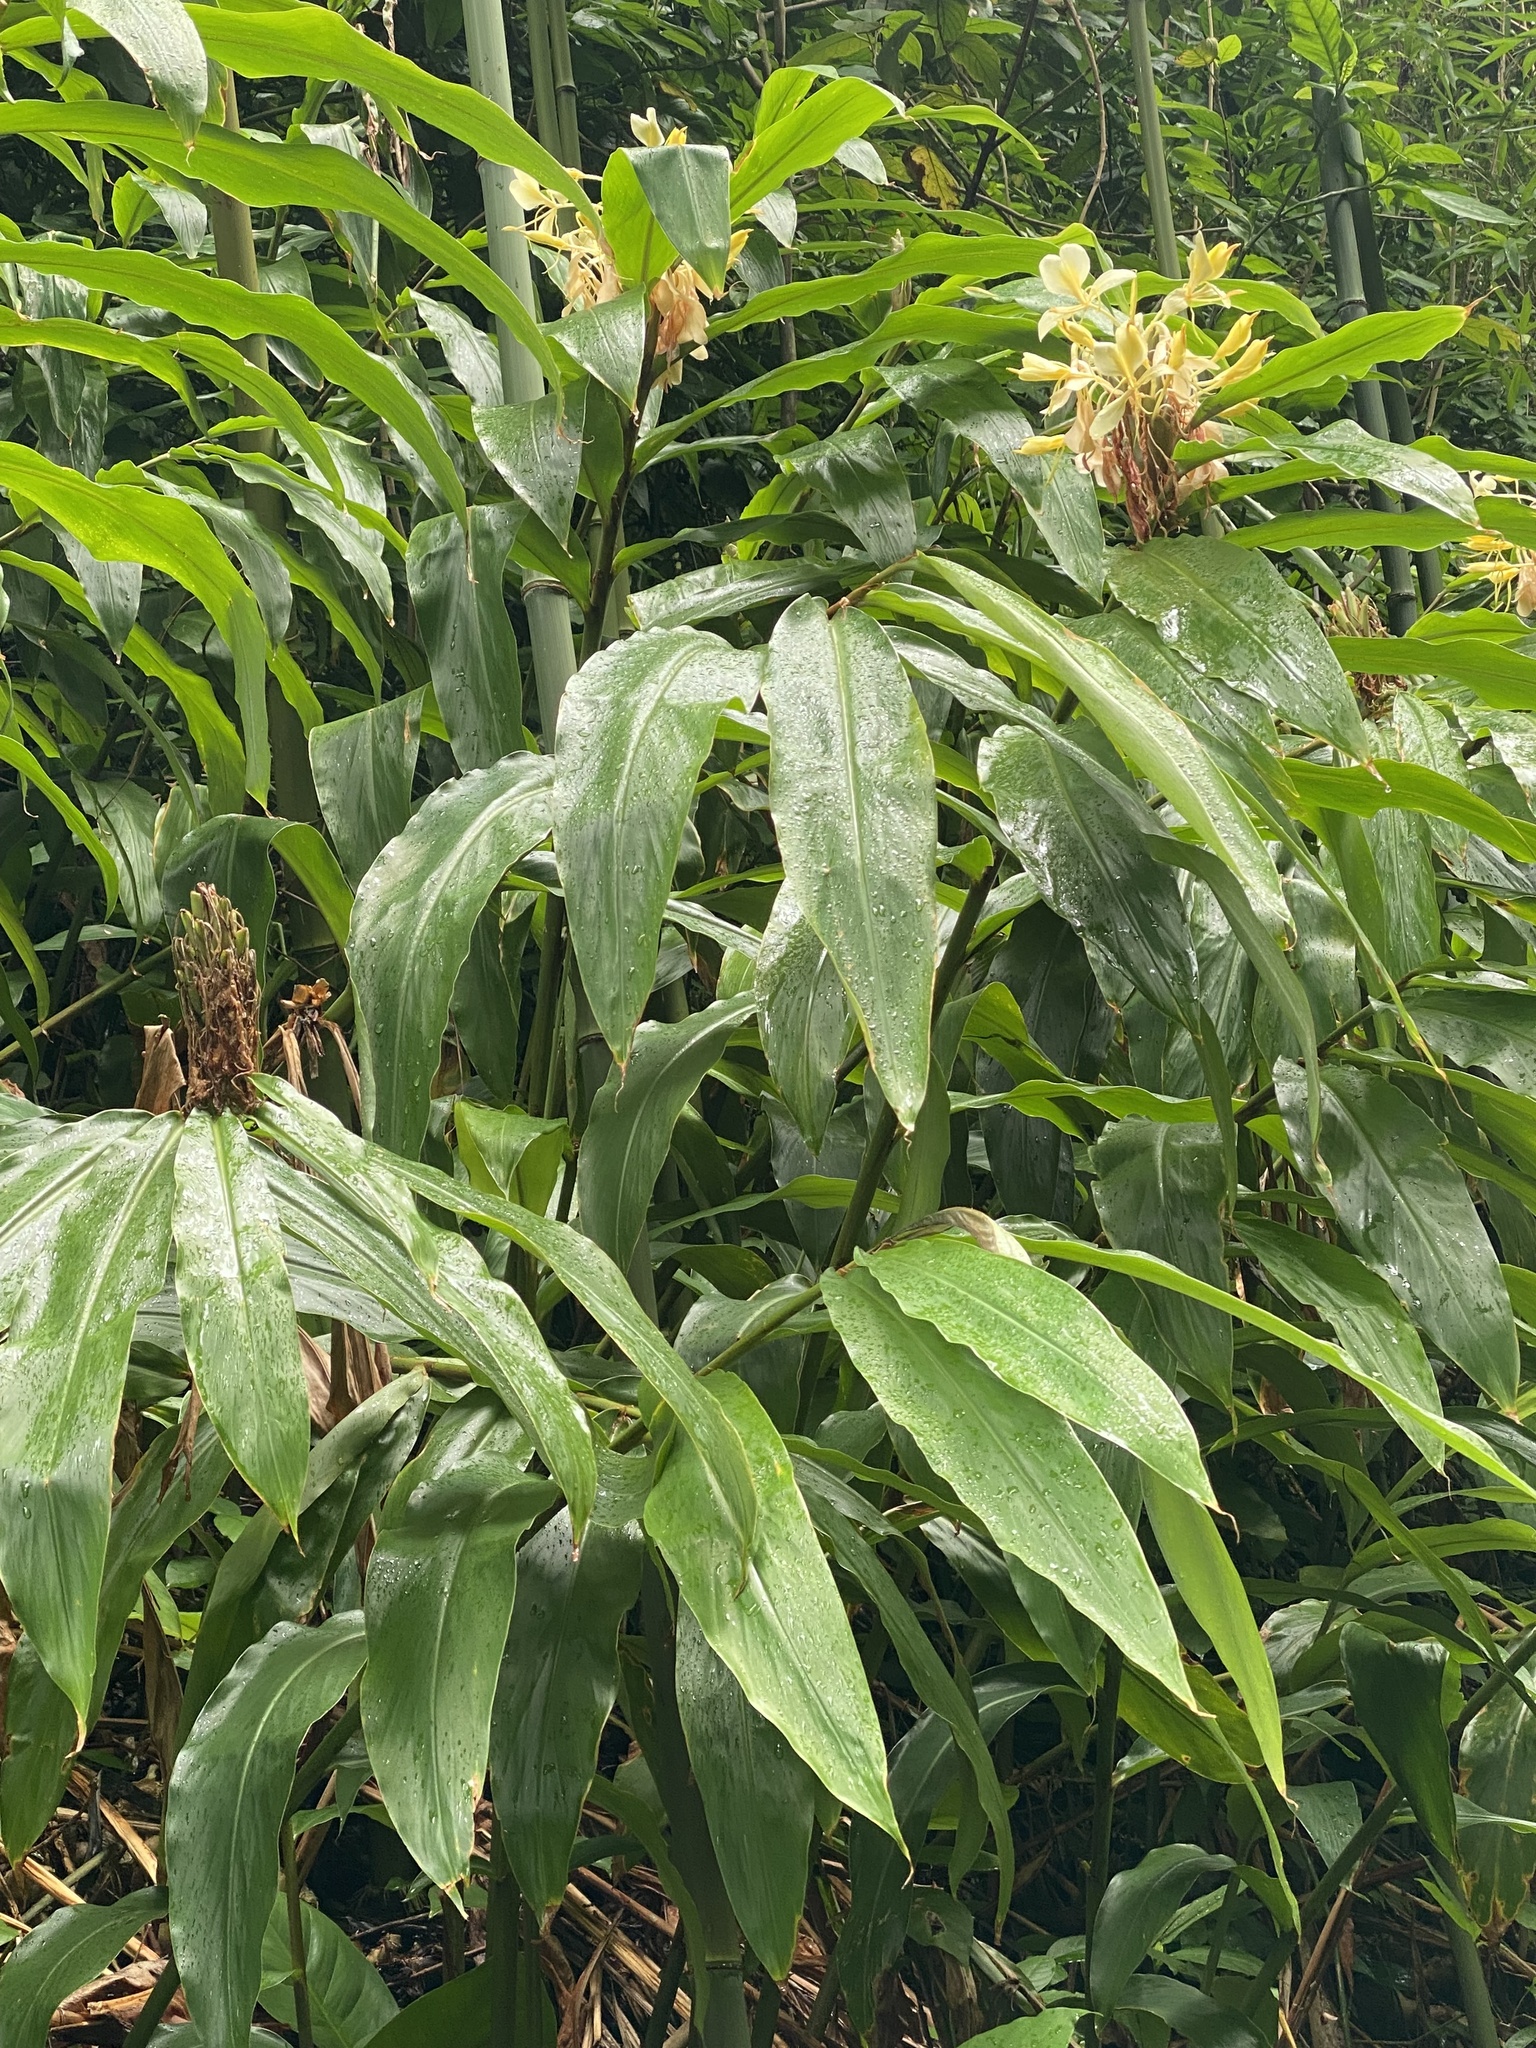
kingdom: Plantae
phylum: Tracheophyta
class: Liliopsida
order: Zingiberales
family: Zingiberaceae
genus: Hedychium
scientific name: Hedychium flavescens
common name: Yellow ginger
